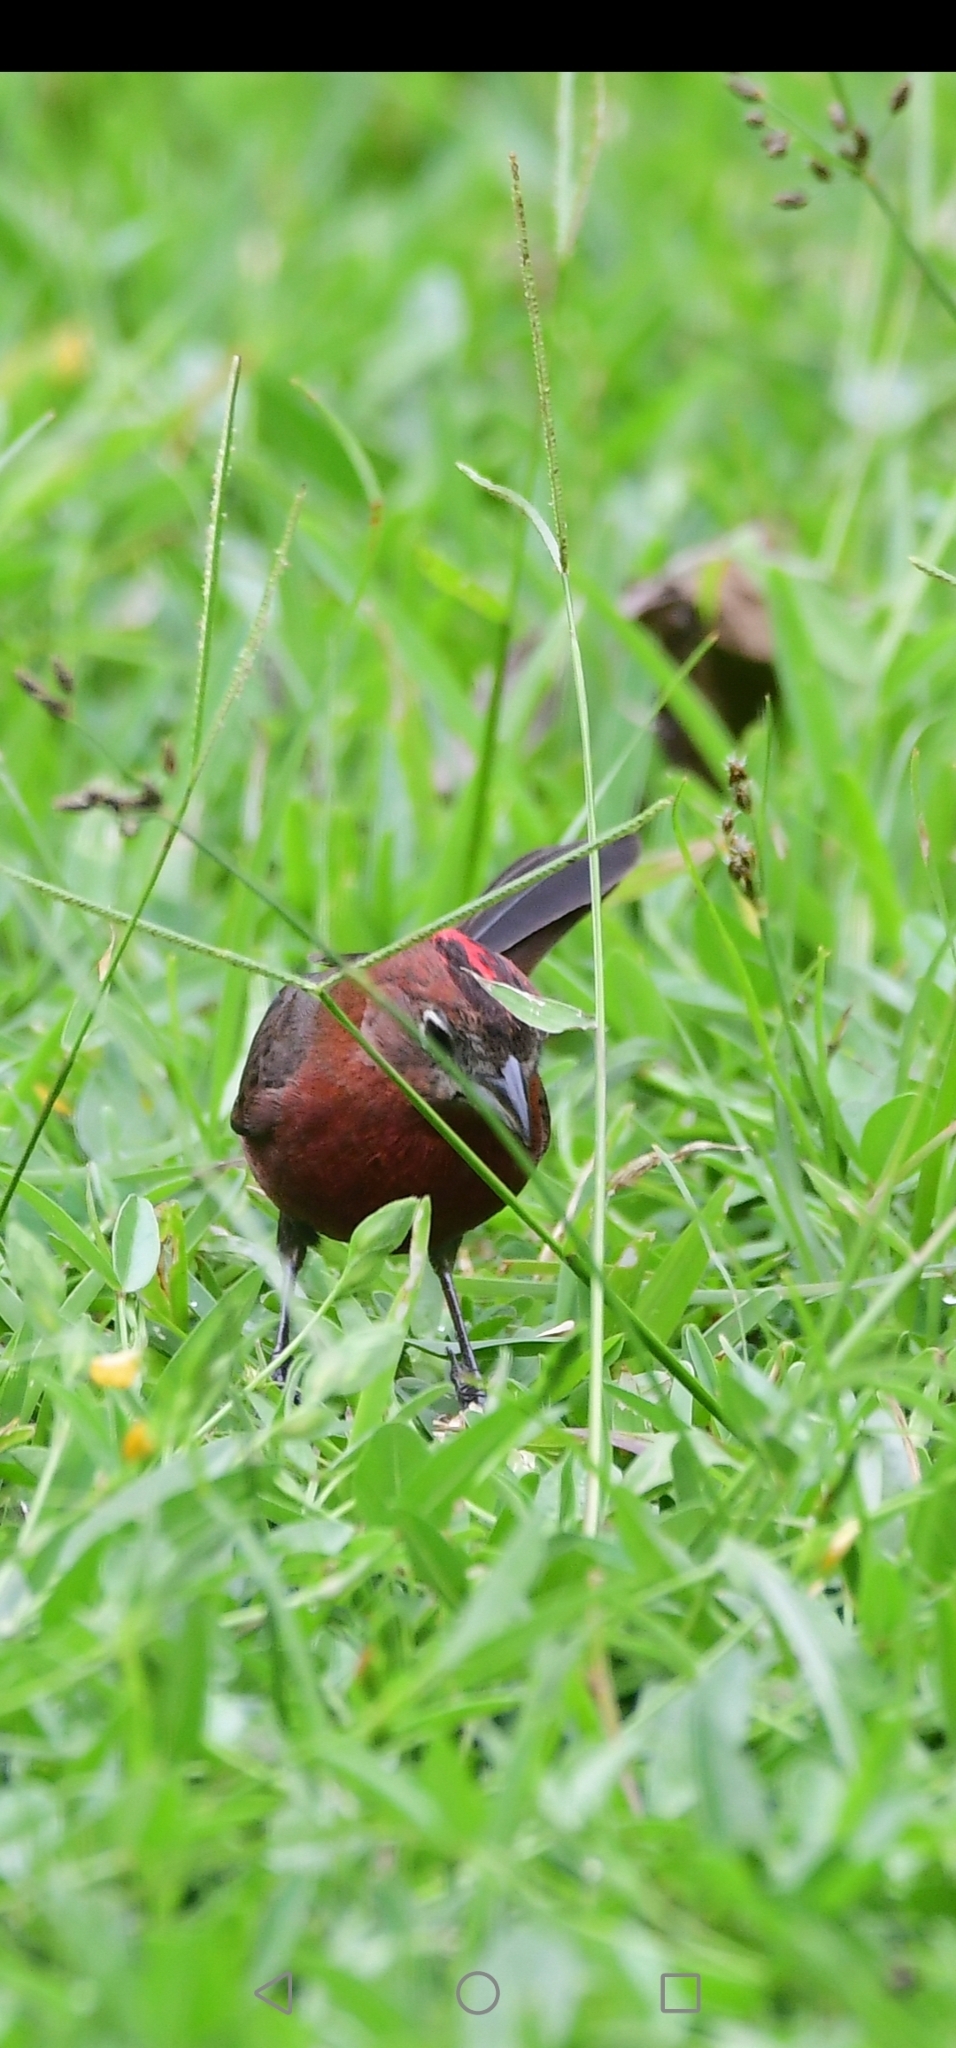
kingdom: Animalia
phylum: Chordata
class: Aves
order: Passeriformes
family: Thraupidae
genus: Coryphospingus
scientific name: Coryphospingus cucullatus
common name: Red pileated finch
